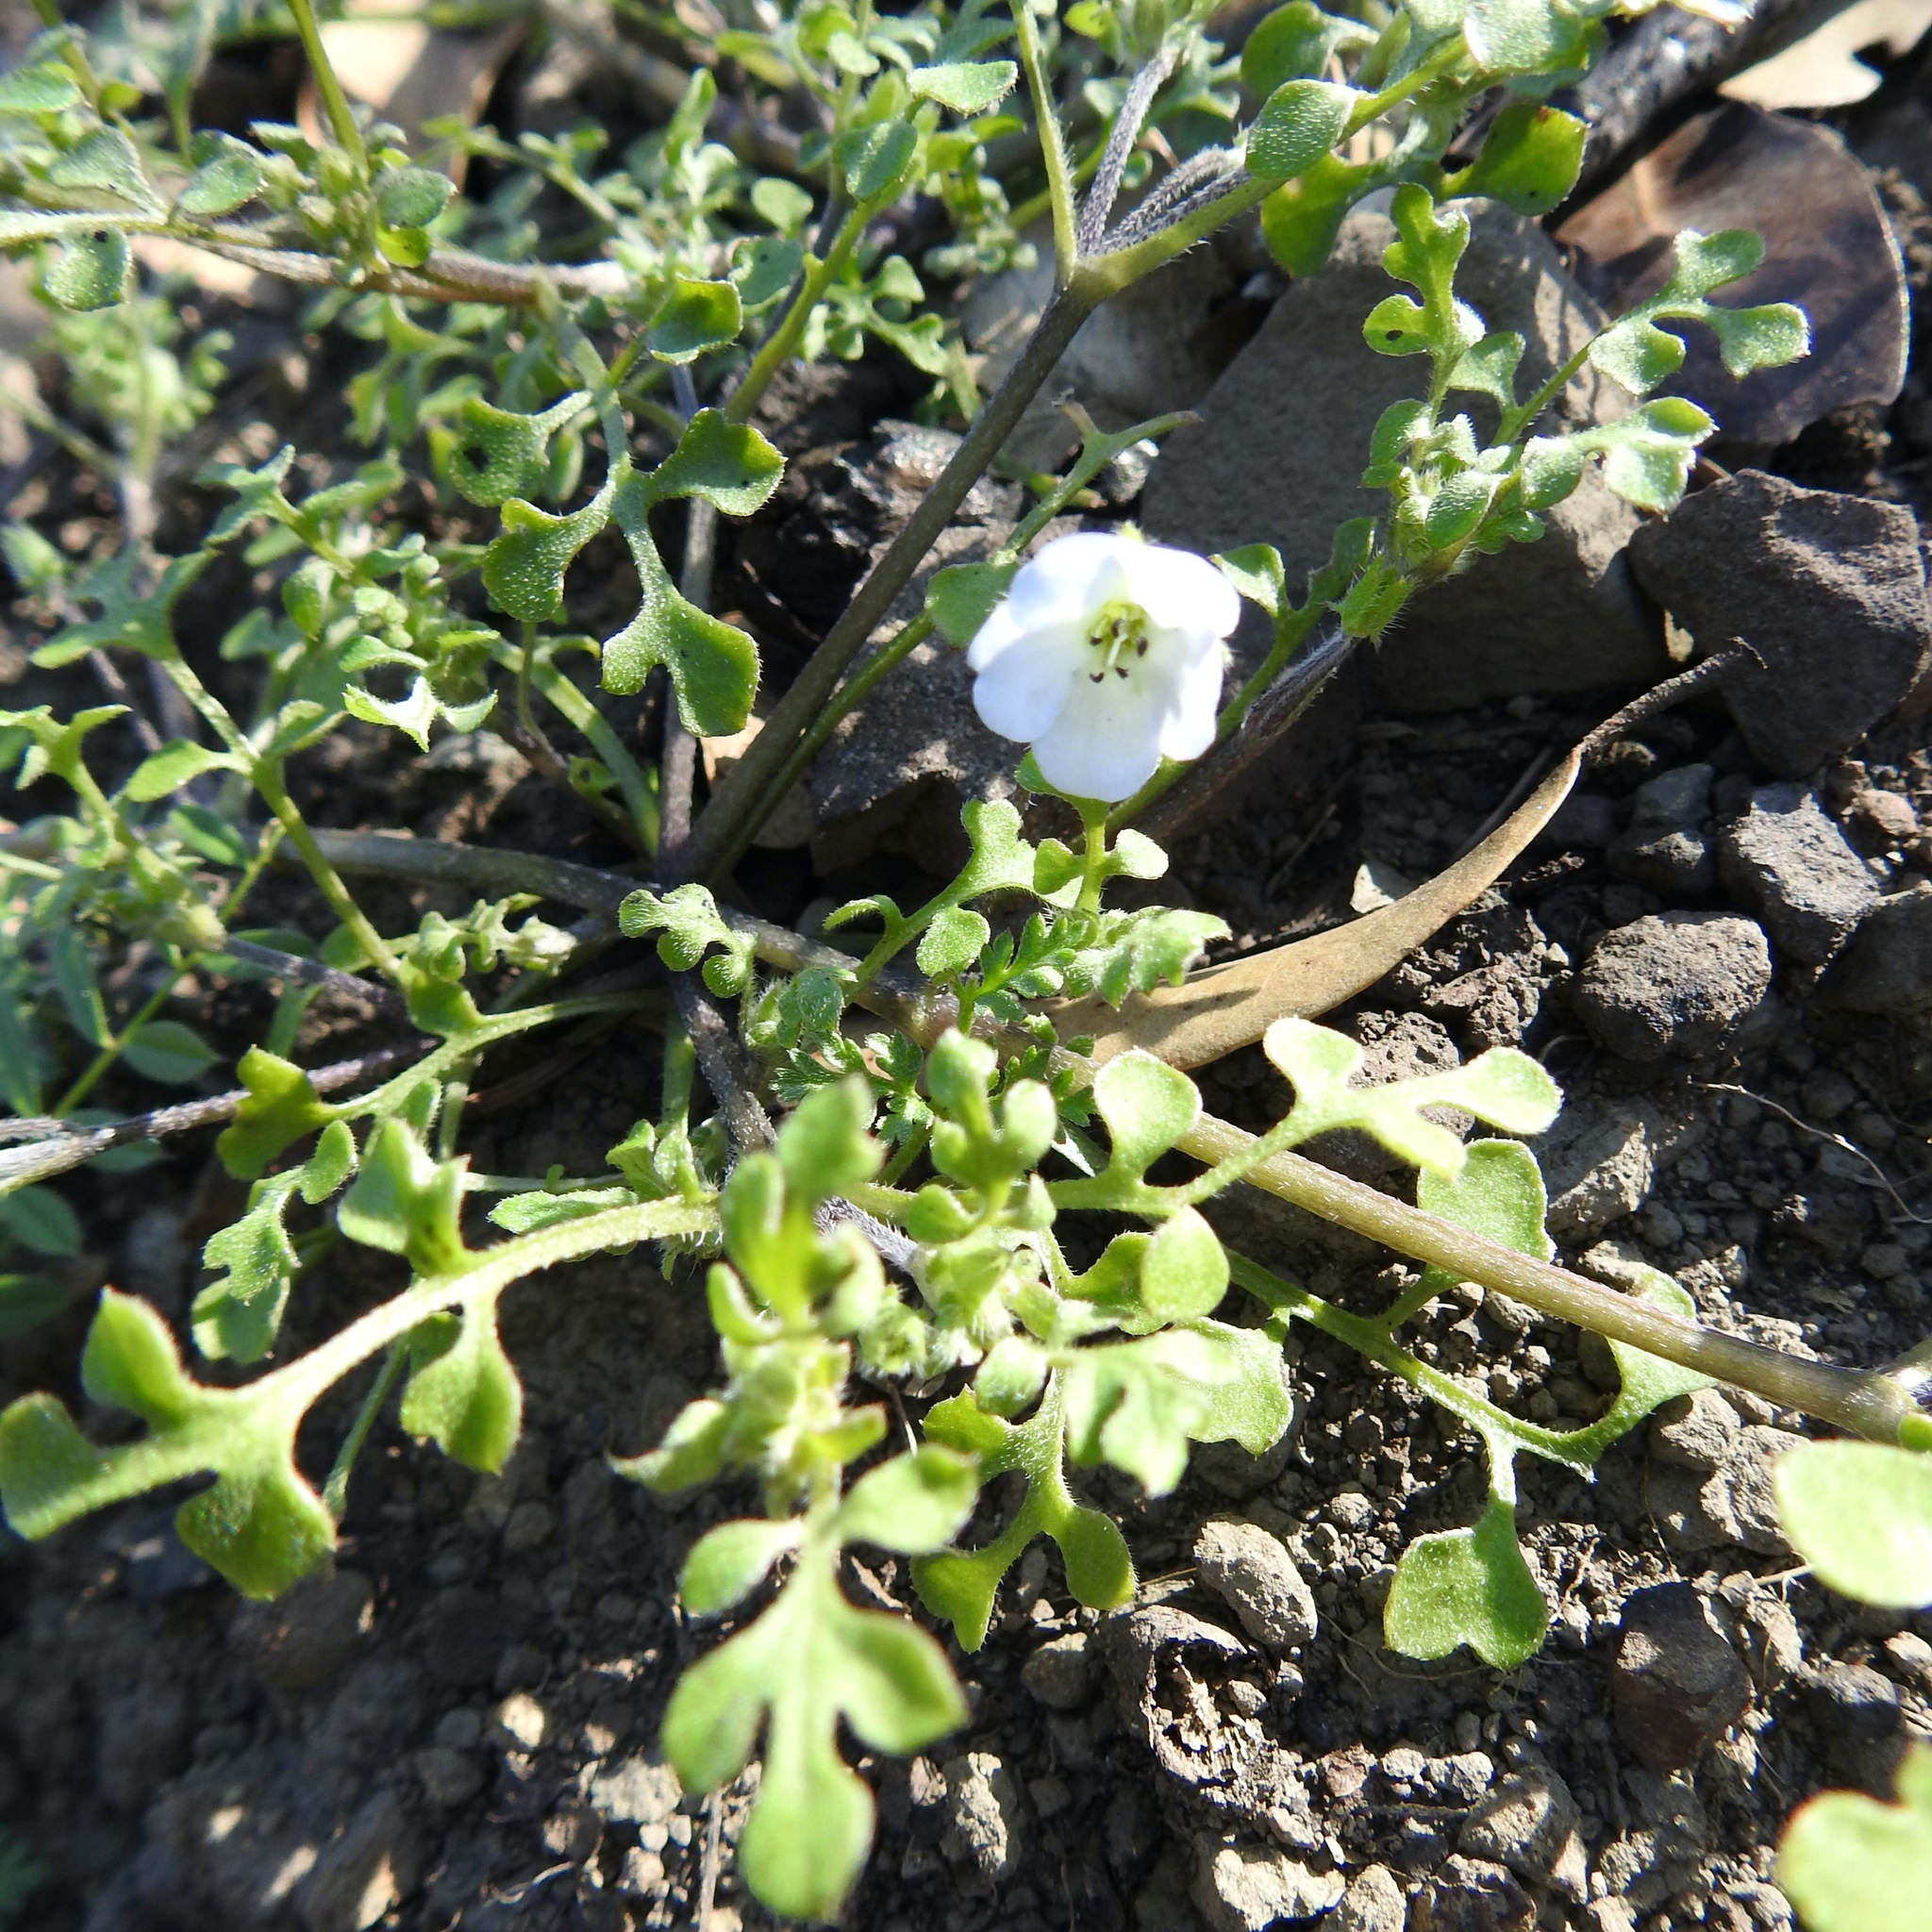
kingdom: Plantae
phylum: Tracheophyta
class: Magnoliopsida
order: Boraginales
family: Hydrophyllaceae
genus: Nemophila
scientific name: Nemophila heterophylla
